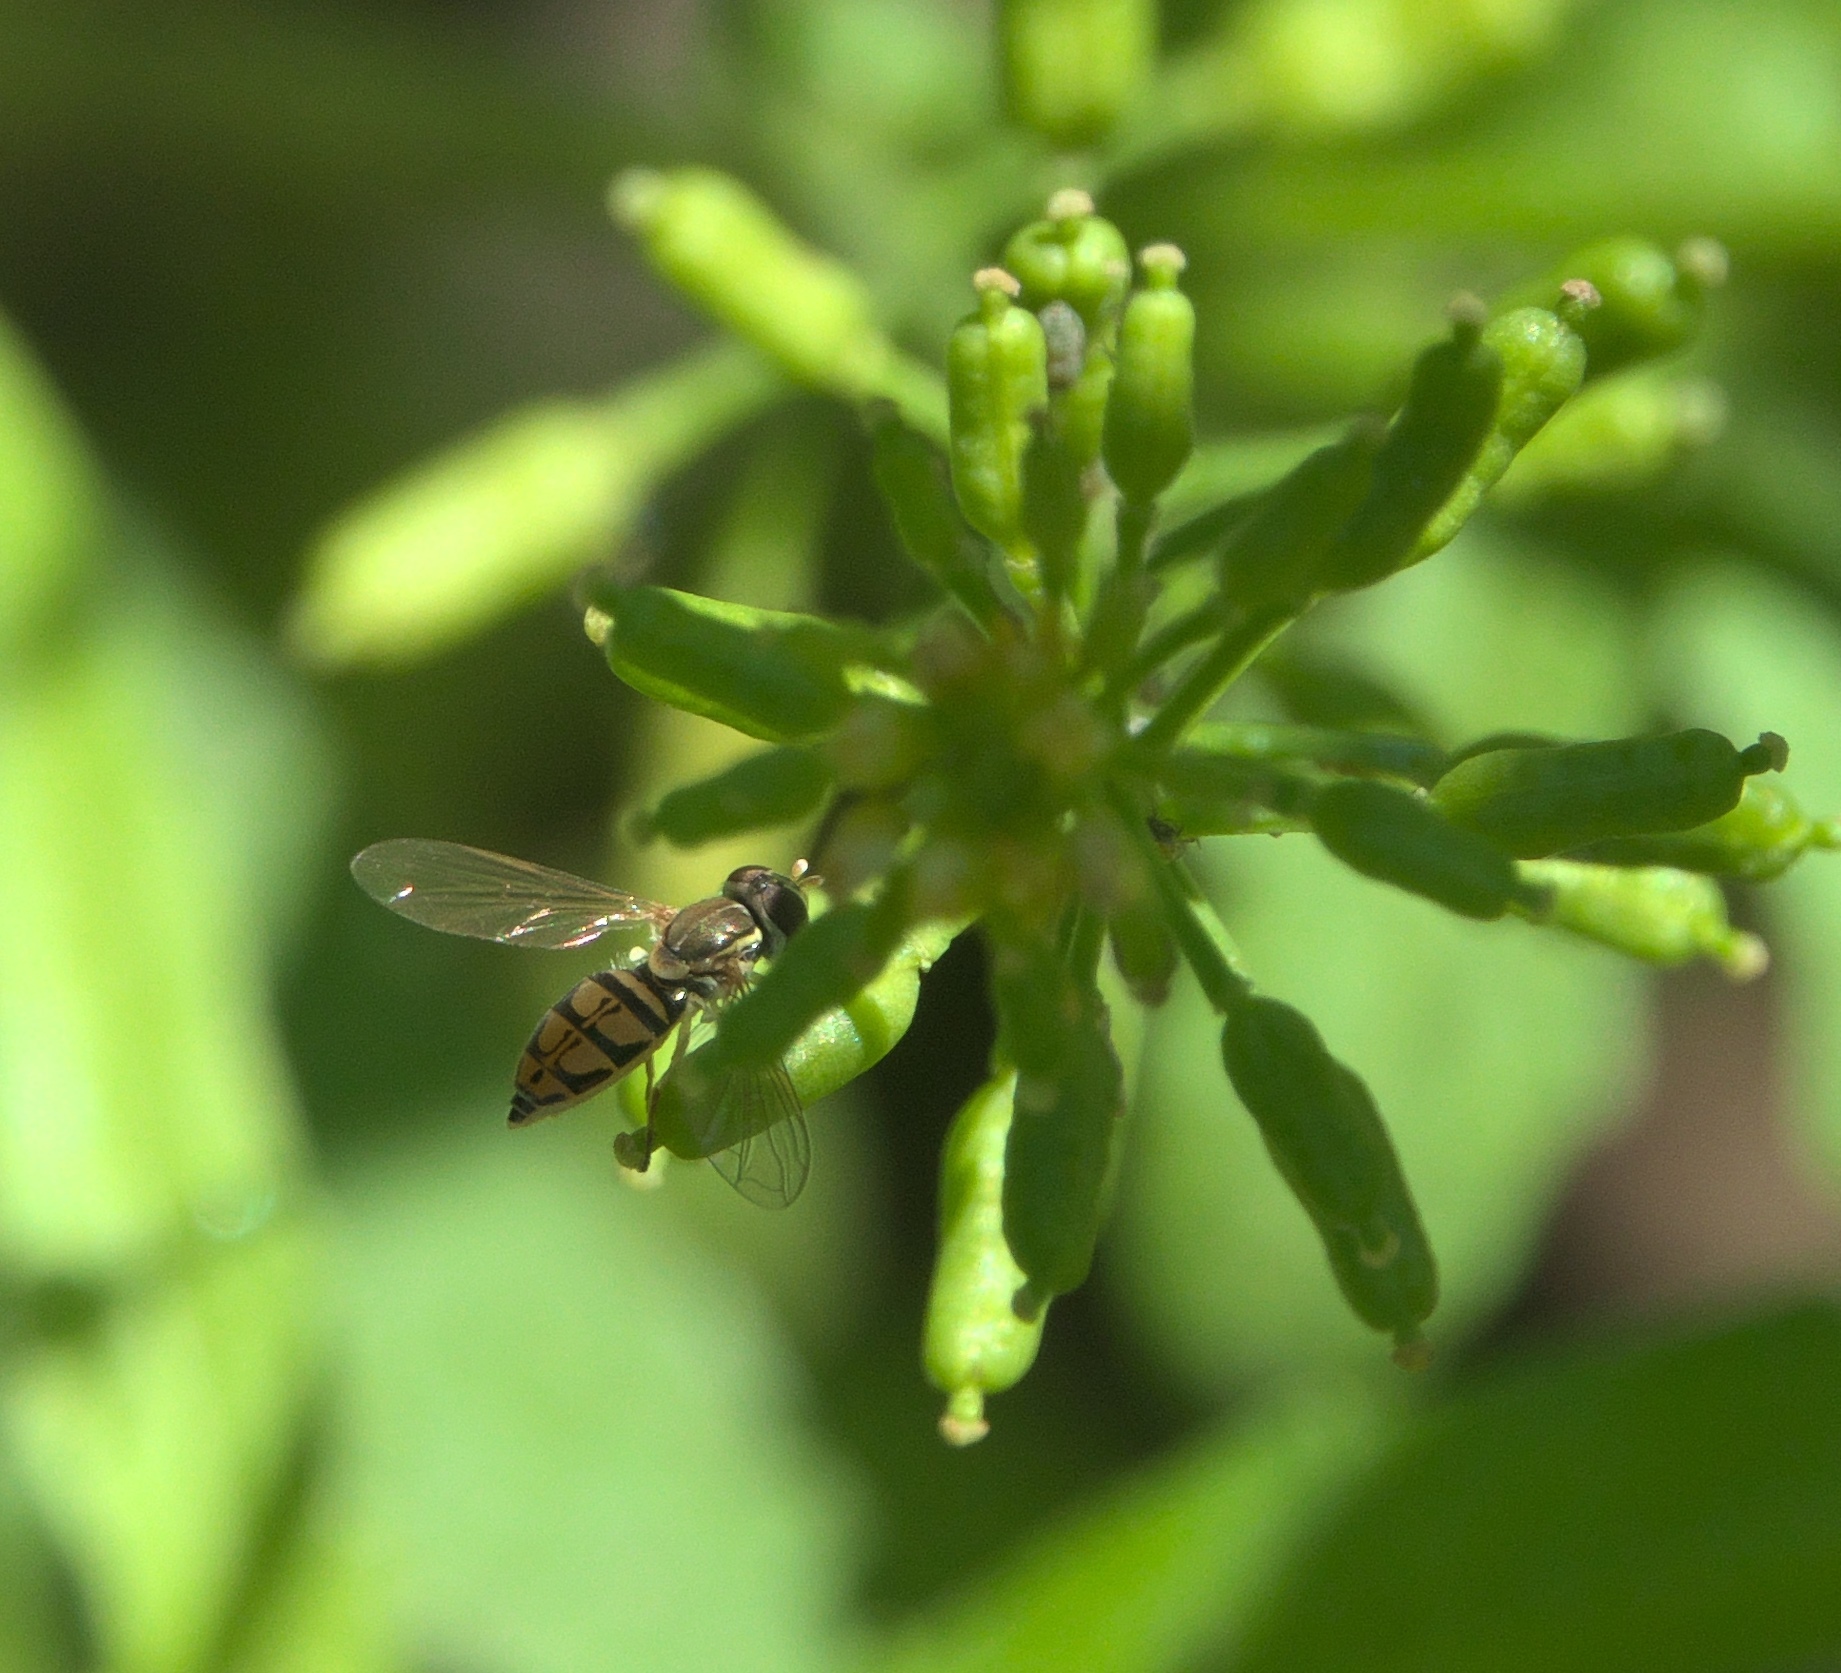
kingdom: Animalia
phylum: Arthropoda
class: Insecta
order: Diptera
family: Syrphidae
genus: Toxomerus
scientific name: Toxomerus marginatus
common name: Syrphid fly
